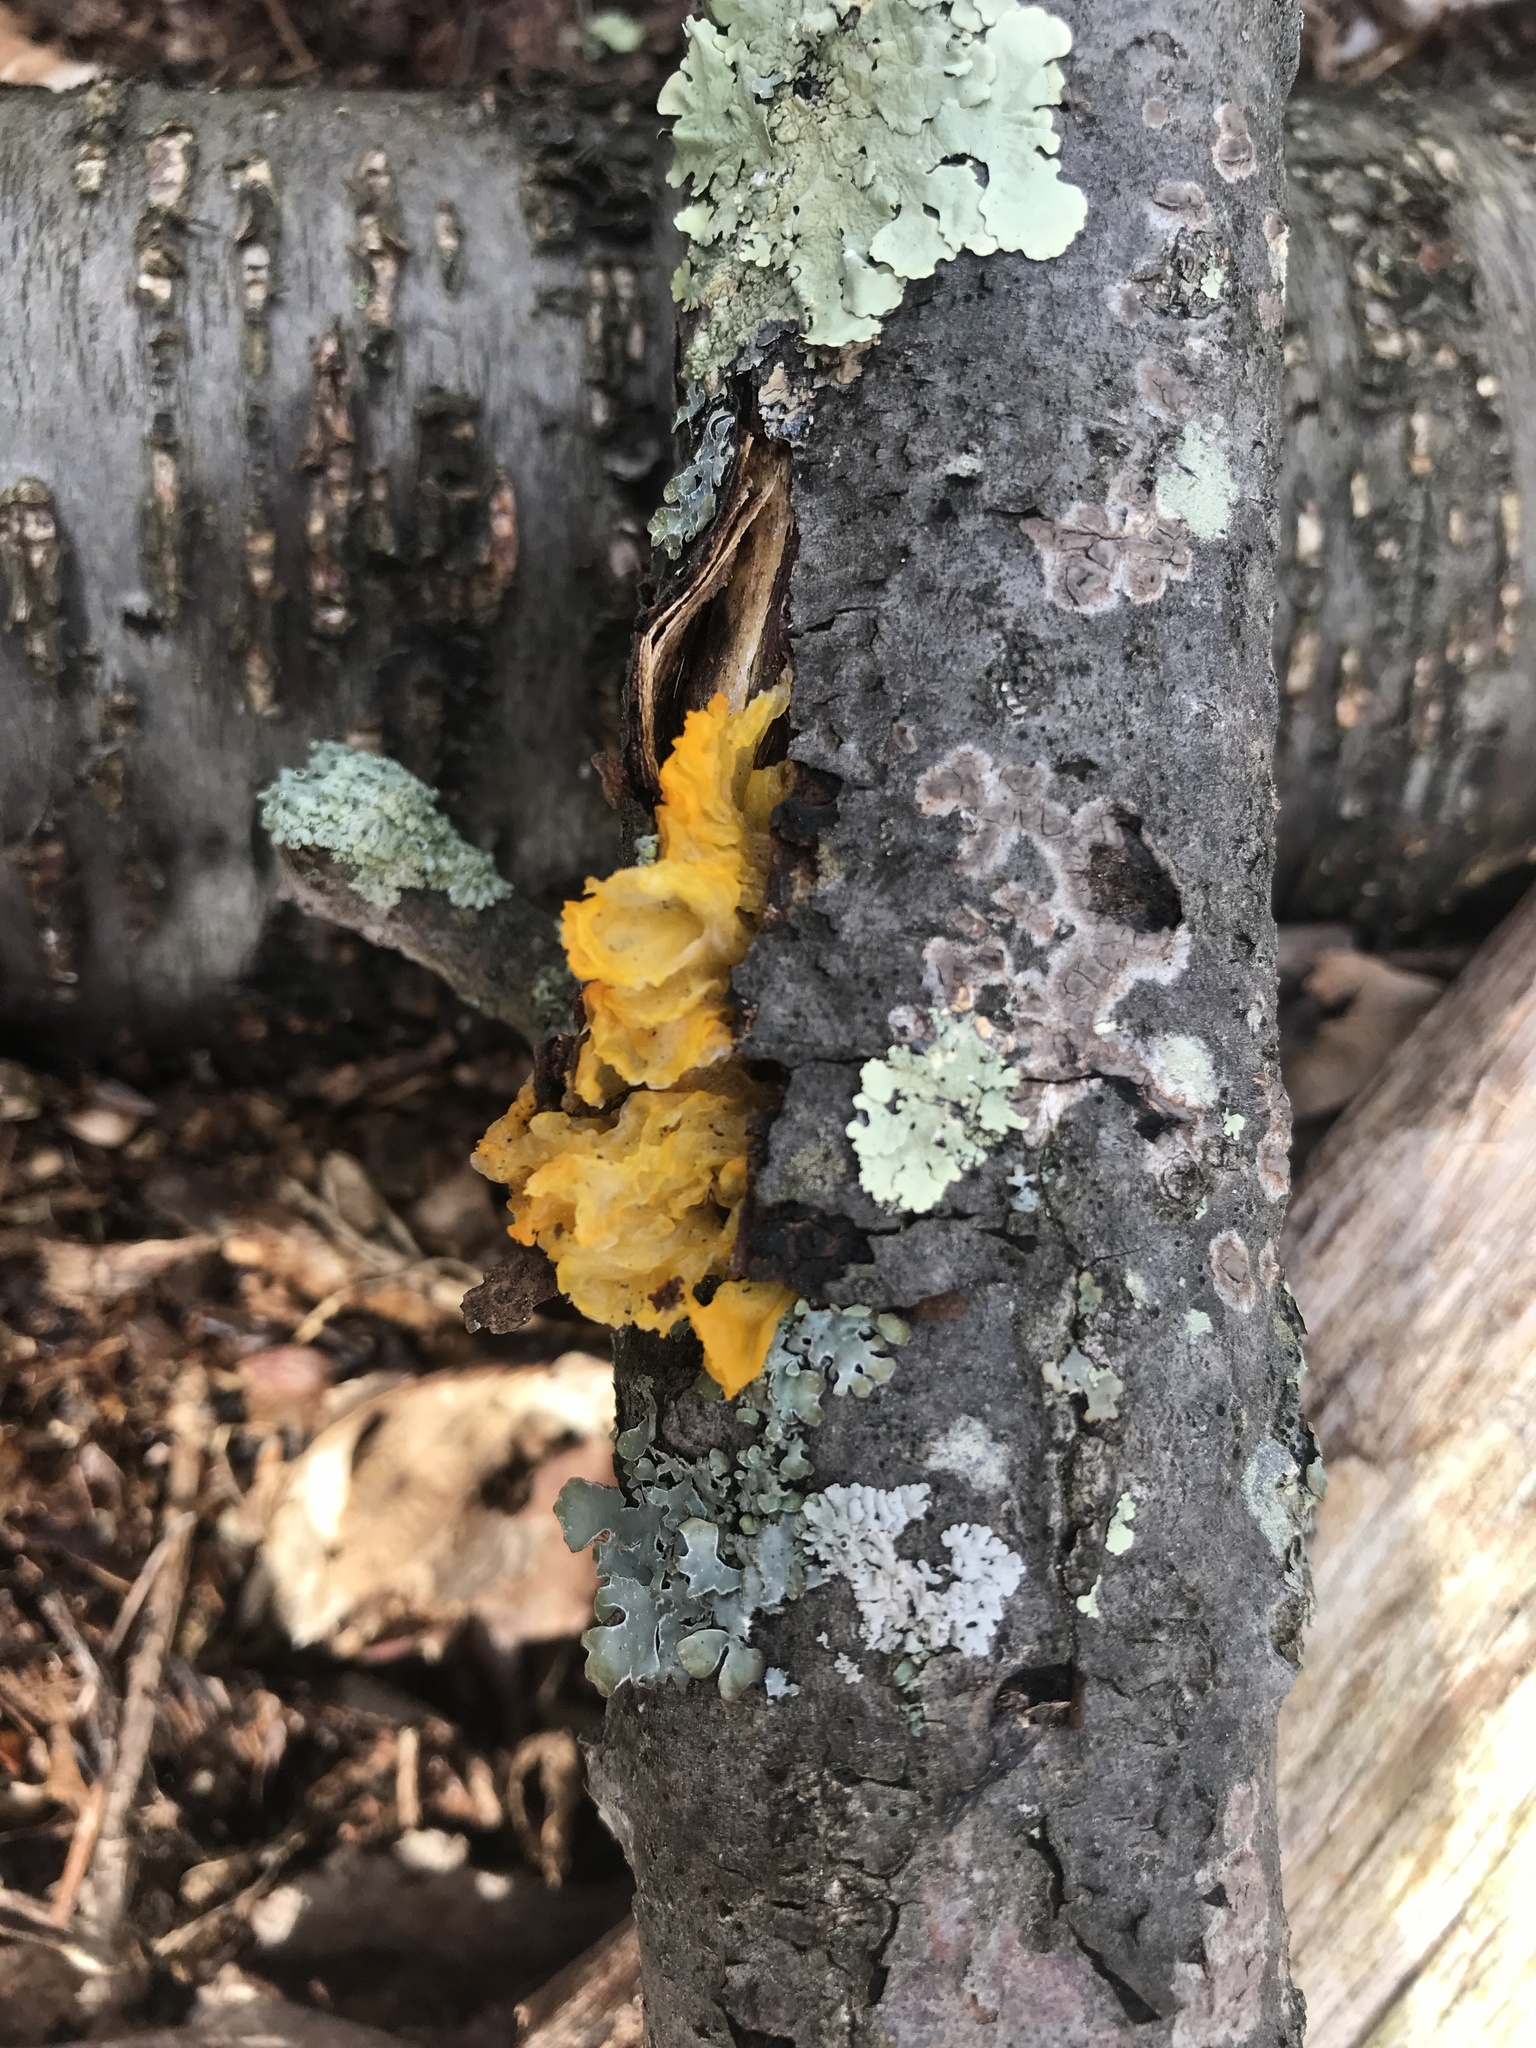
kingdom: Fungi
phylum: Basidiomycota
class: Tremellomycetes
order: Tremellales
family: Tremellaceae
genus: Tremella
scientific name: Tremella mesenterica
